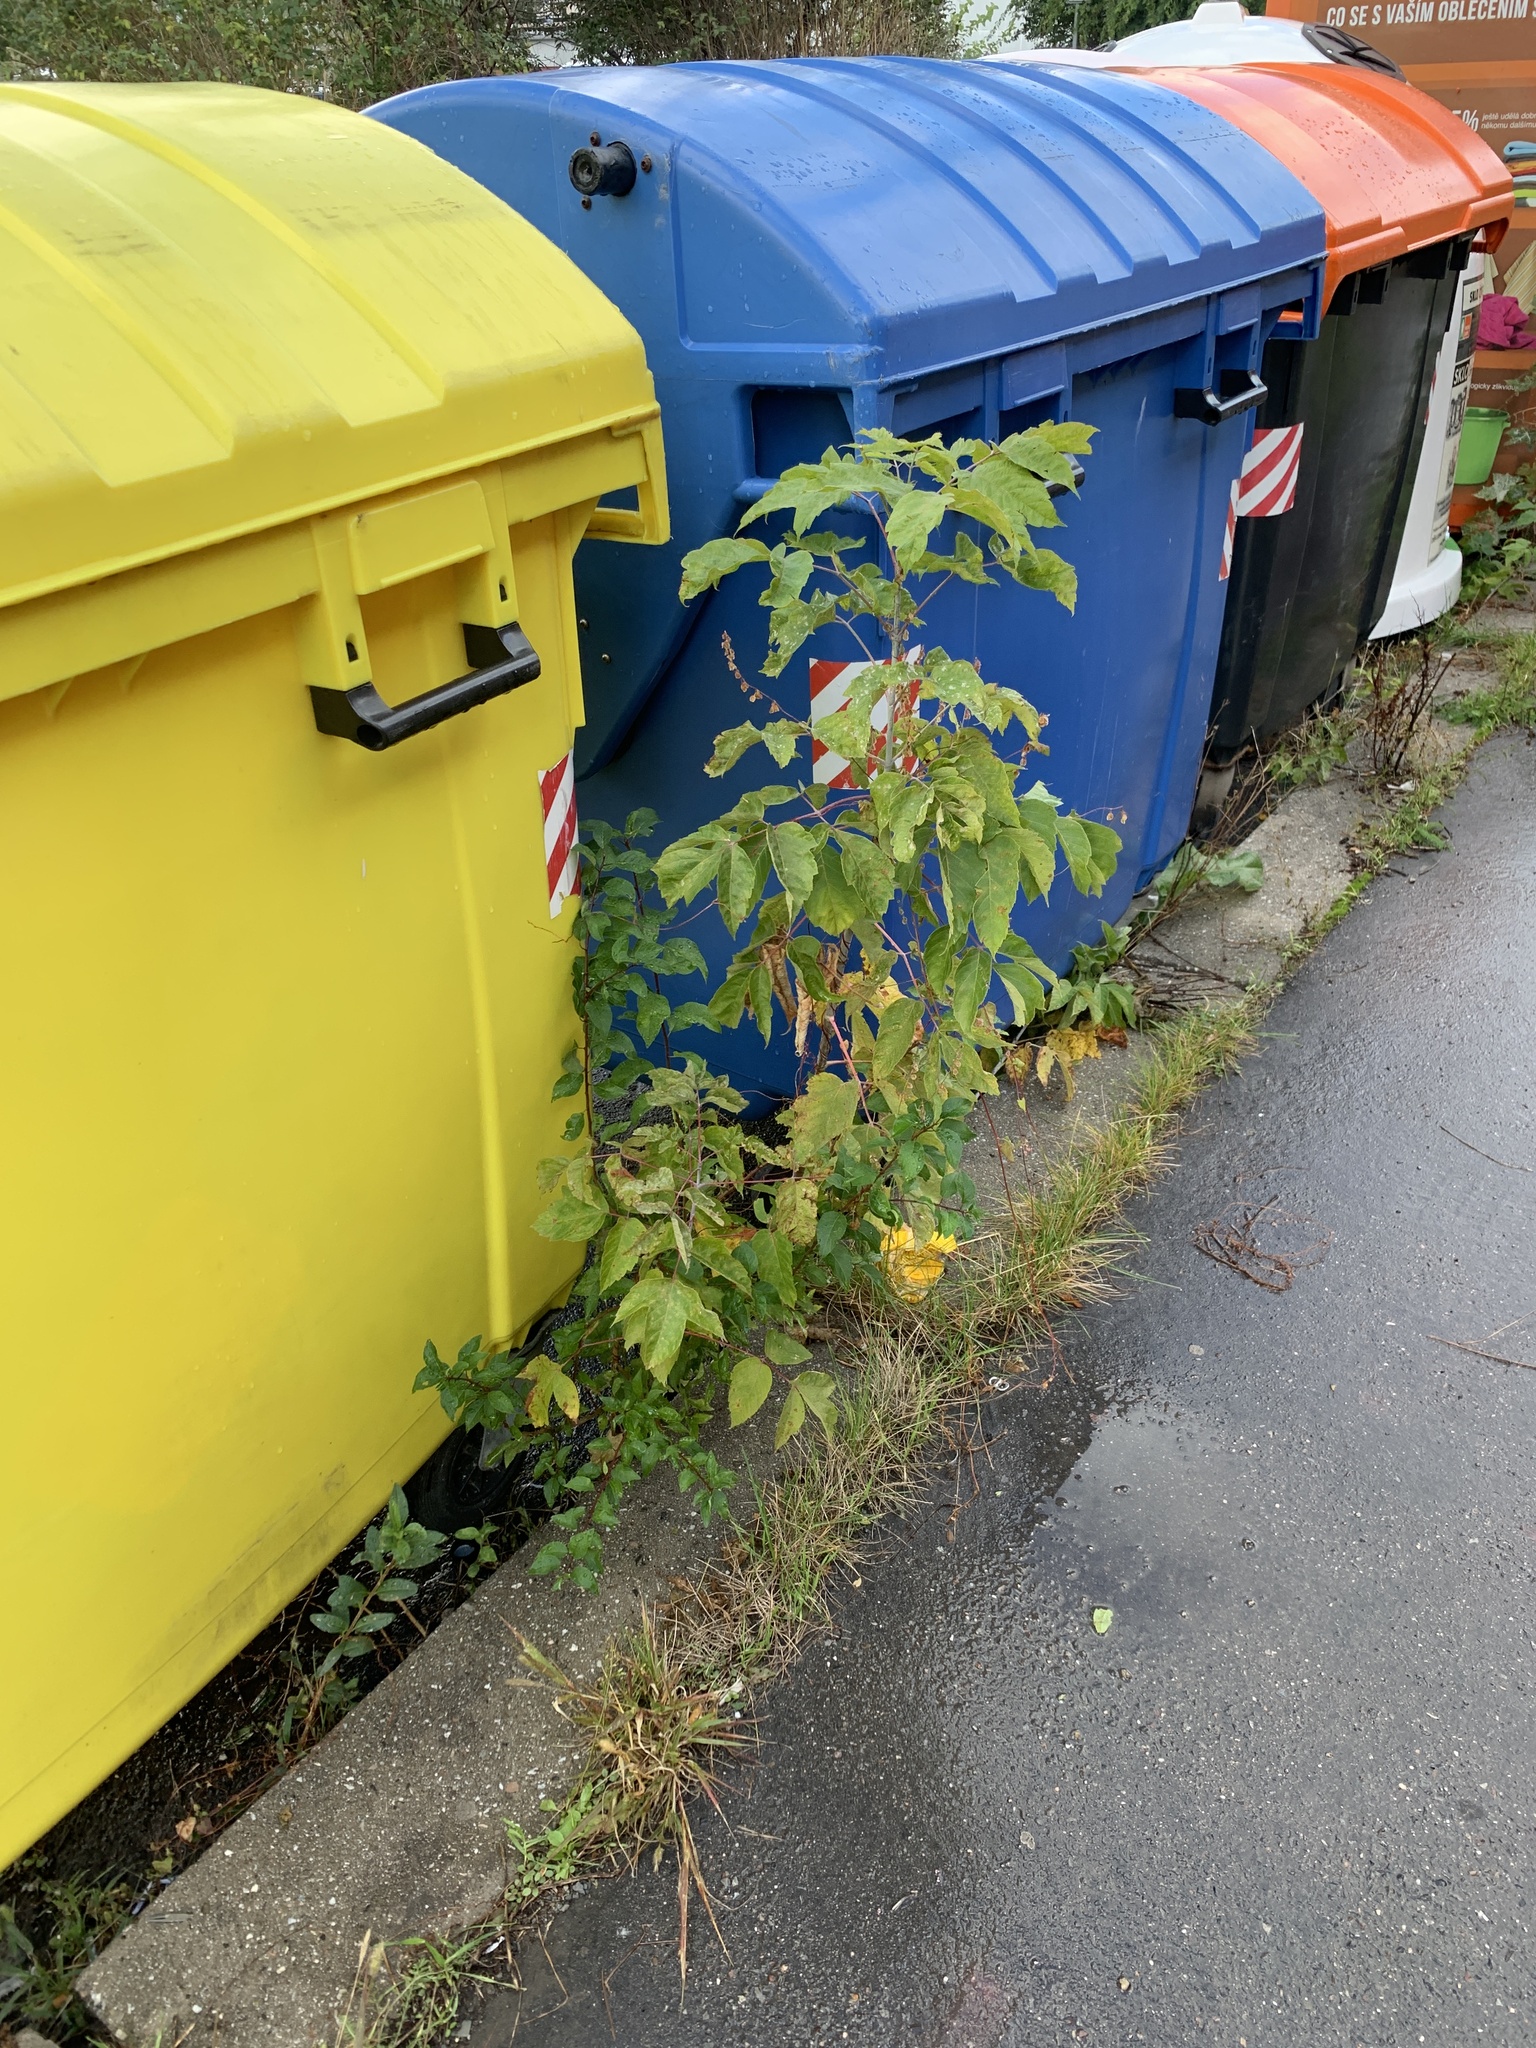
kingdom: Plantae
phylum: Tracheophyta
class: Magnoliopsida
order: Sapindales
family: Sapindaceae
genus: Acer
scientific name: Acer negundo
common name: Ashleaf maple
